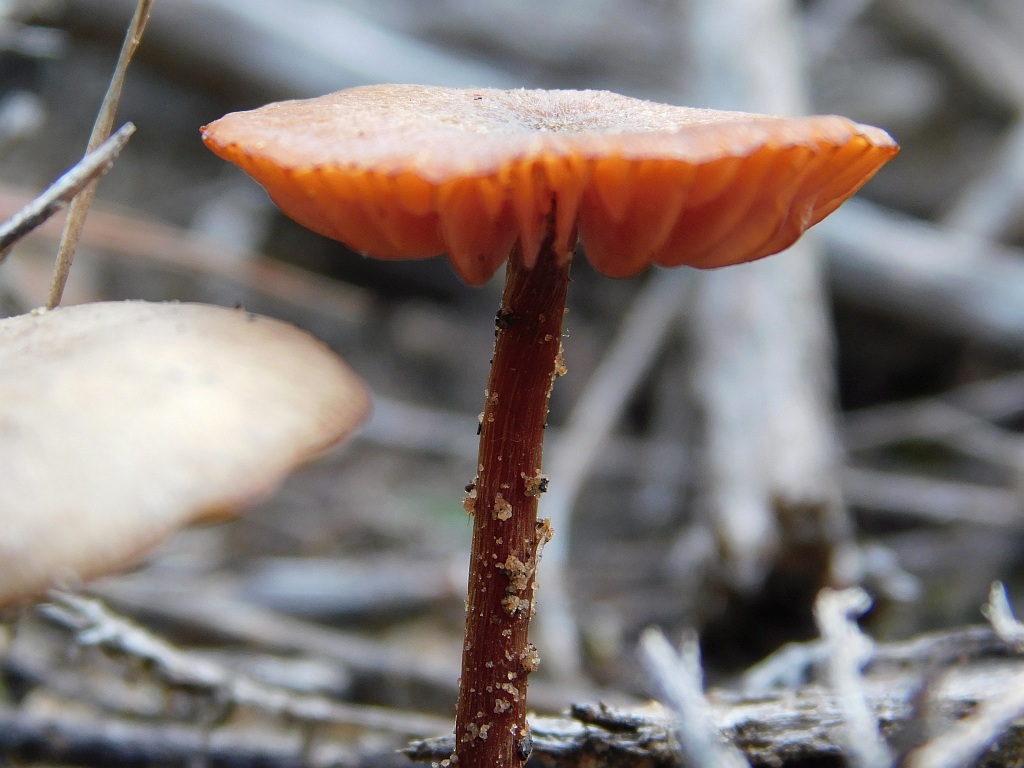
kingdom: Fungi
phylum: Basidiomycota
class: Agaricomycetes
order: Agaricales
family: Hydnangiaceae
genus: Laccaria
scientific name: Laccaria laccata
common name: Deceiver
